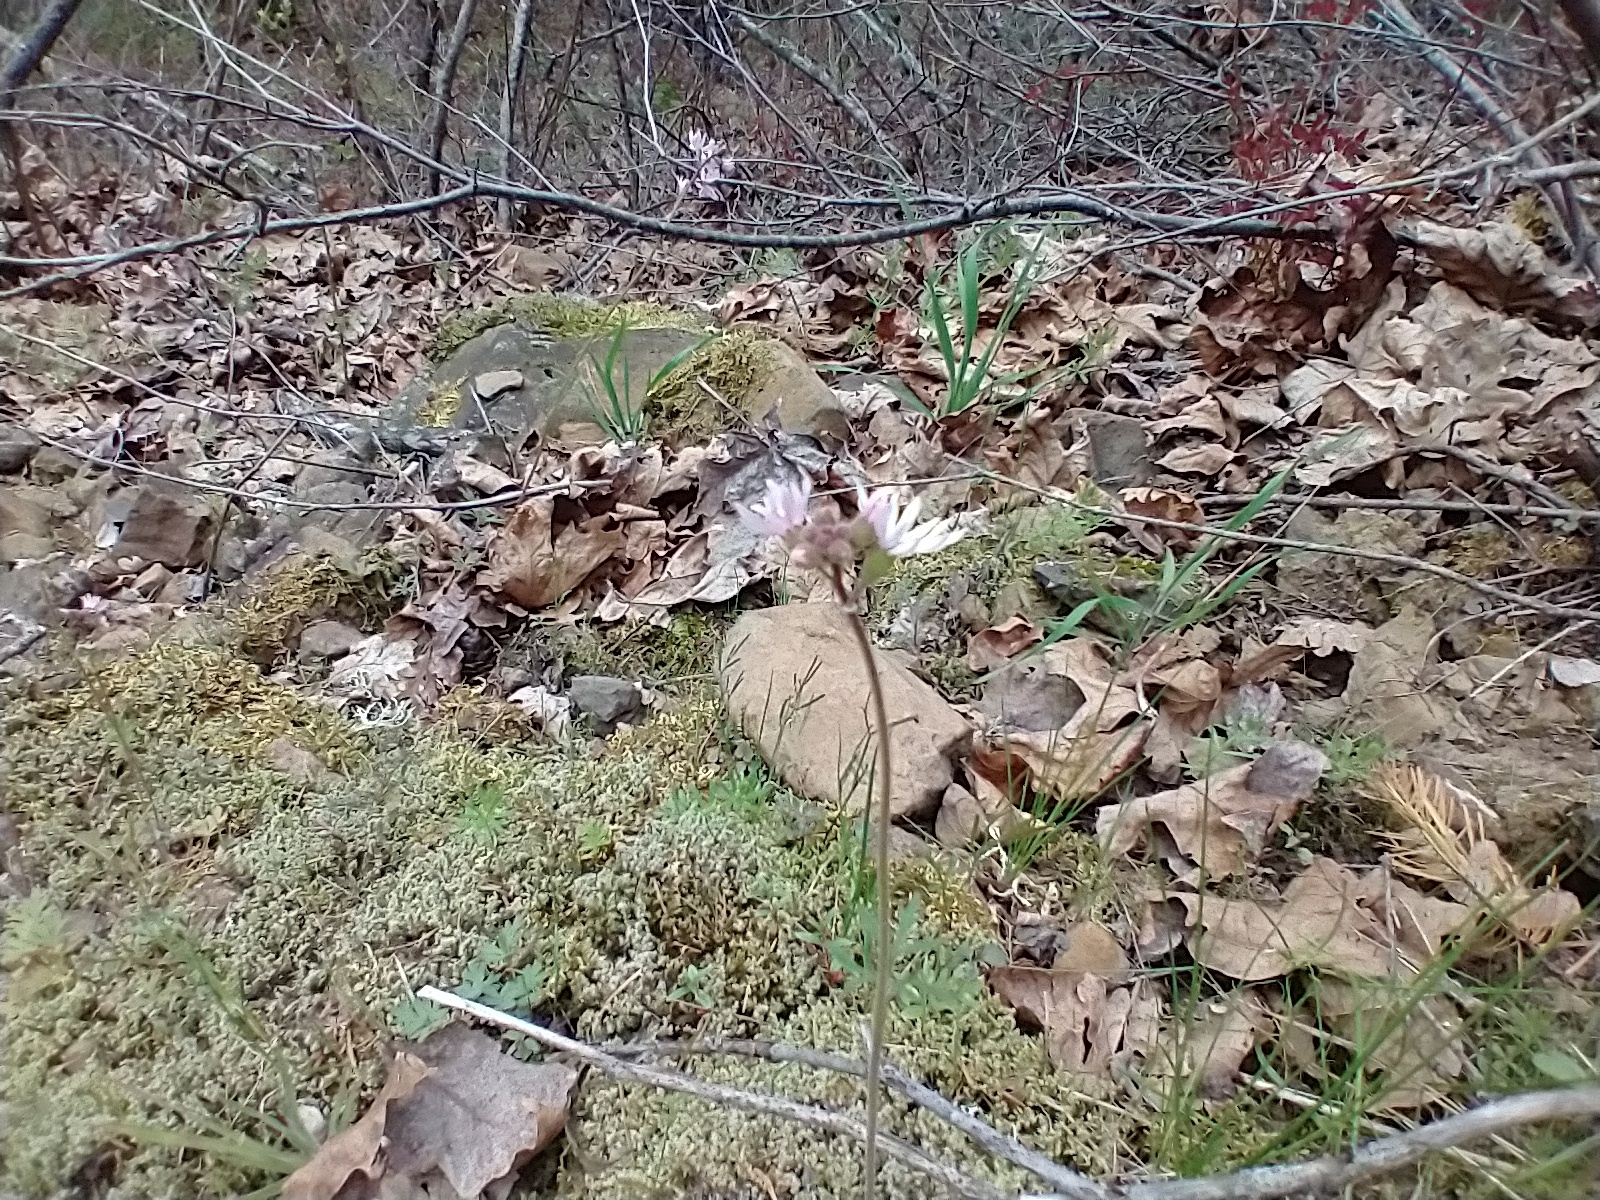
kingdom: Plantae
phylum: Tracheophyta
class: Magnoliopsida
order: Saxifragales
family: Saxifragaceae
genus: Lithophragma
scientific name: Lithophragma parviflorum
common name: Small-flowered fringe-cup
